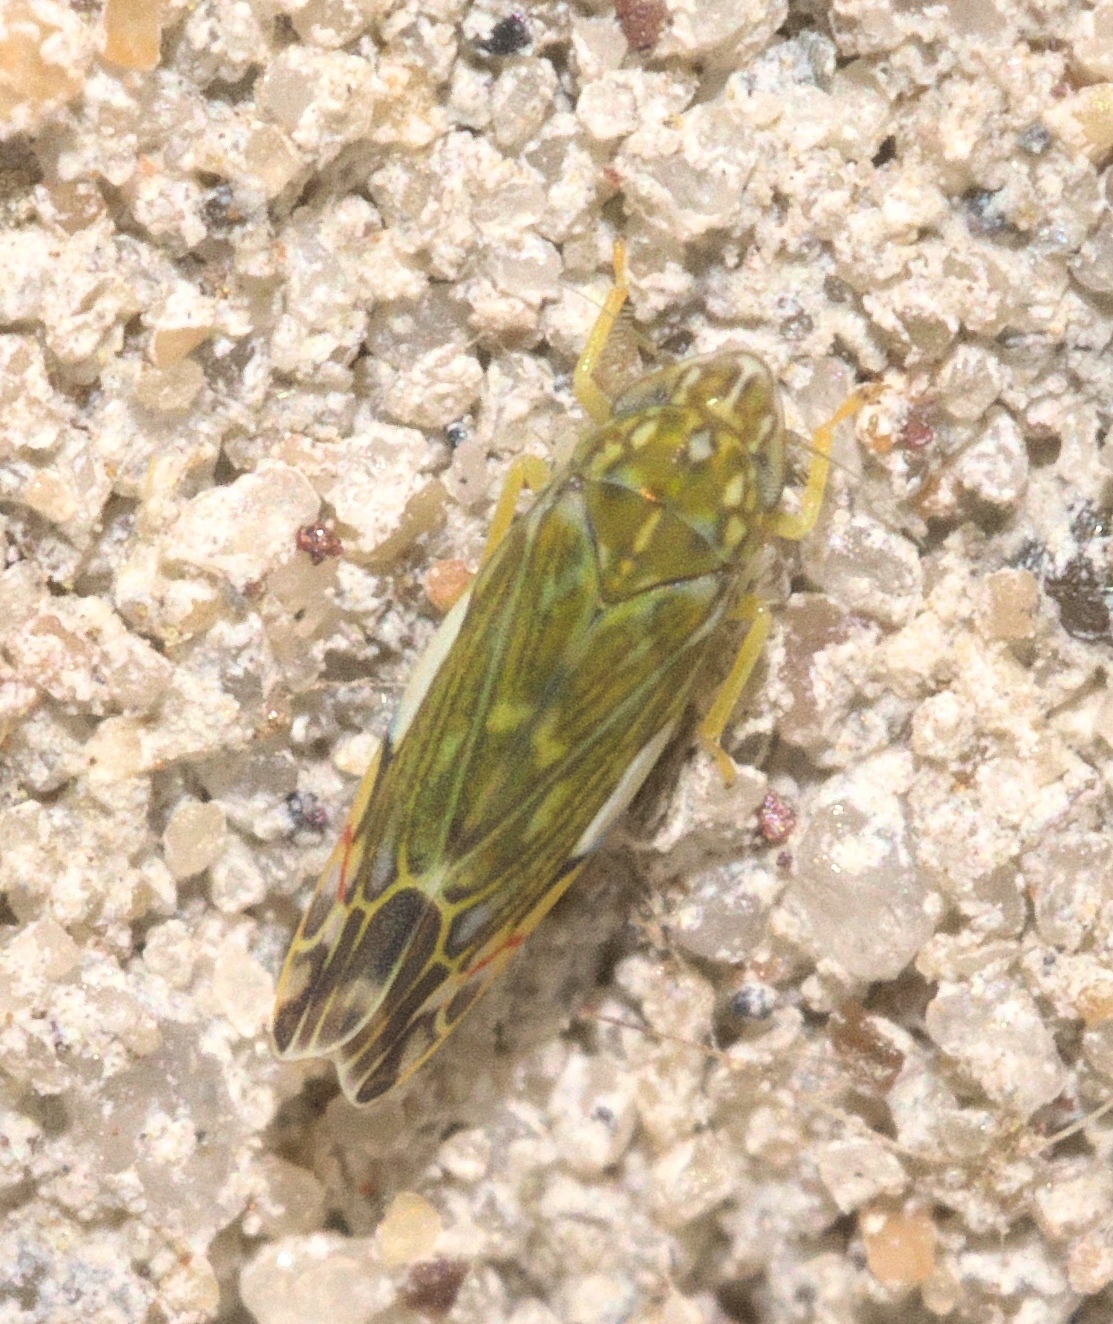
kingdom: Animalia
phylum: Arthropoda
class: Insecta
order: Hemiptera
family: Cicadellidae
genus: Erasmoneura
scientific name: Erasmoneura vulnerata
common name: The wounded leafhopper
